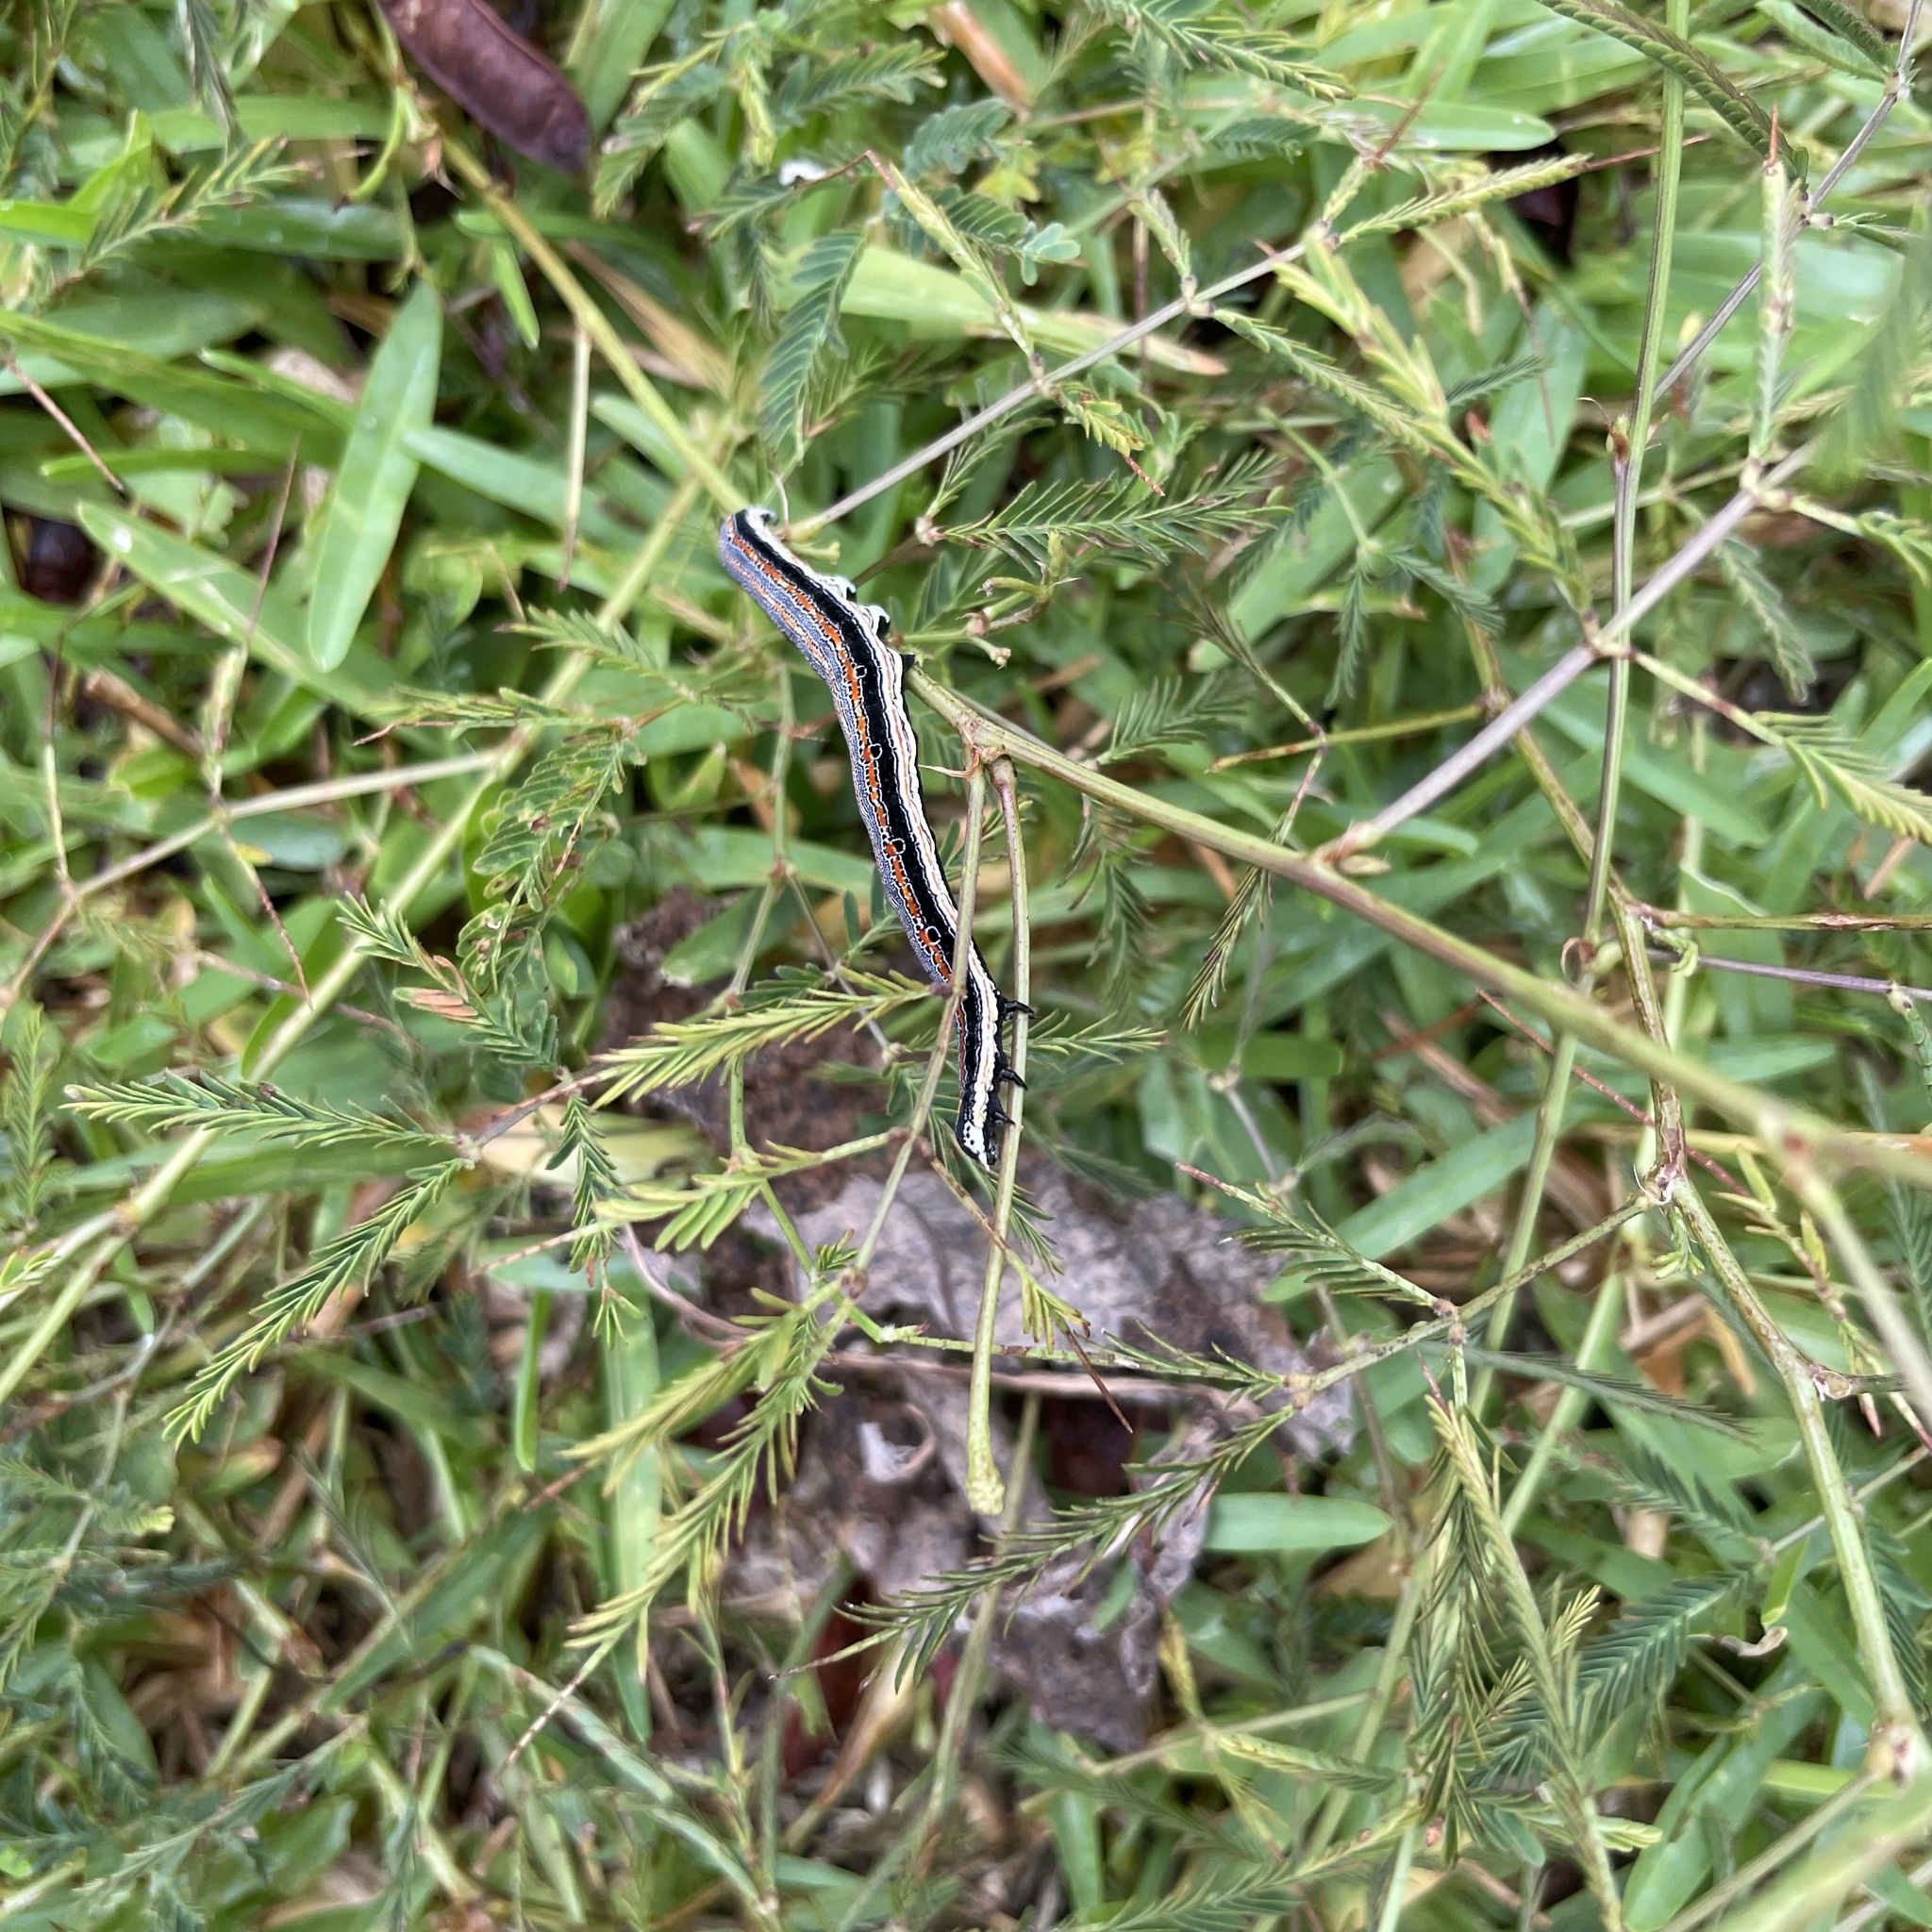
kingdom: Animalia
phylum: Arthropoda
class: Insecta
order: Lepidoptera
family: Erebidae
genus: Grammodes
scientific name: Grammodes geometrica
